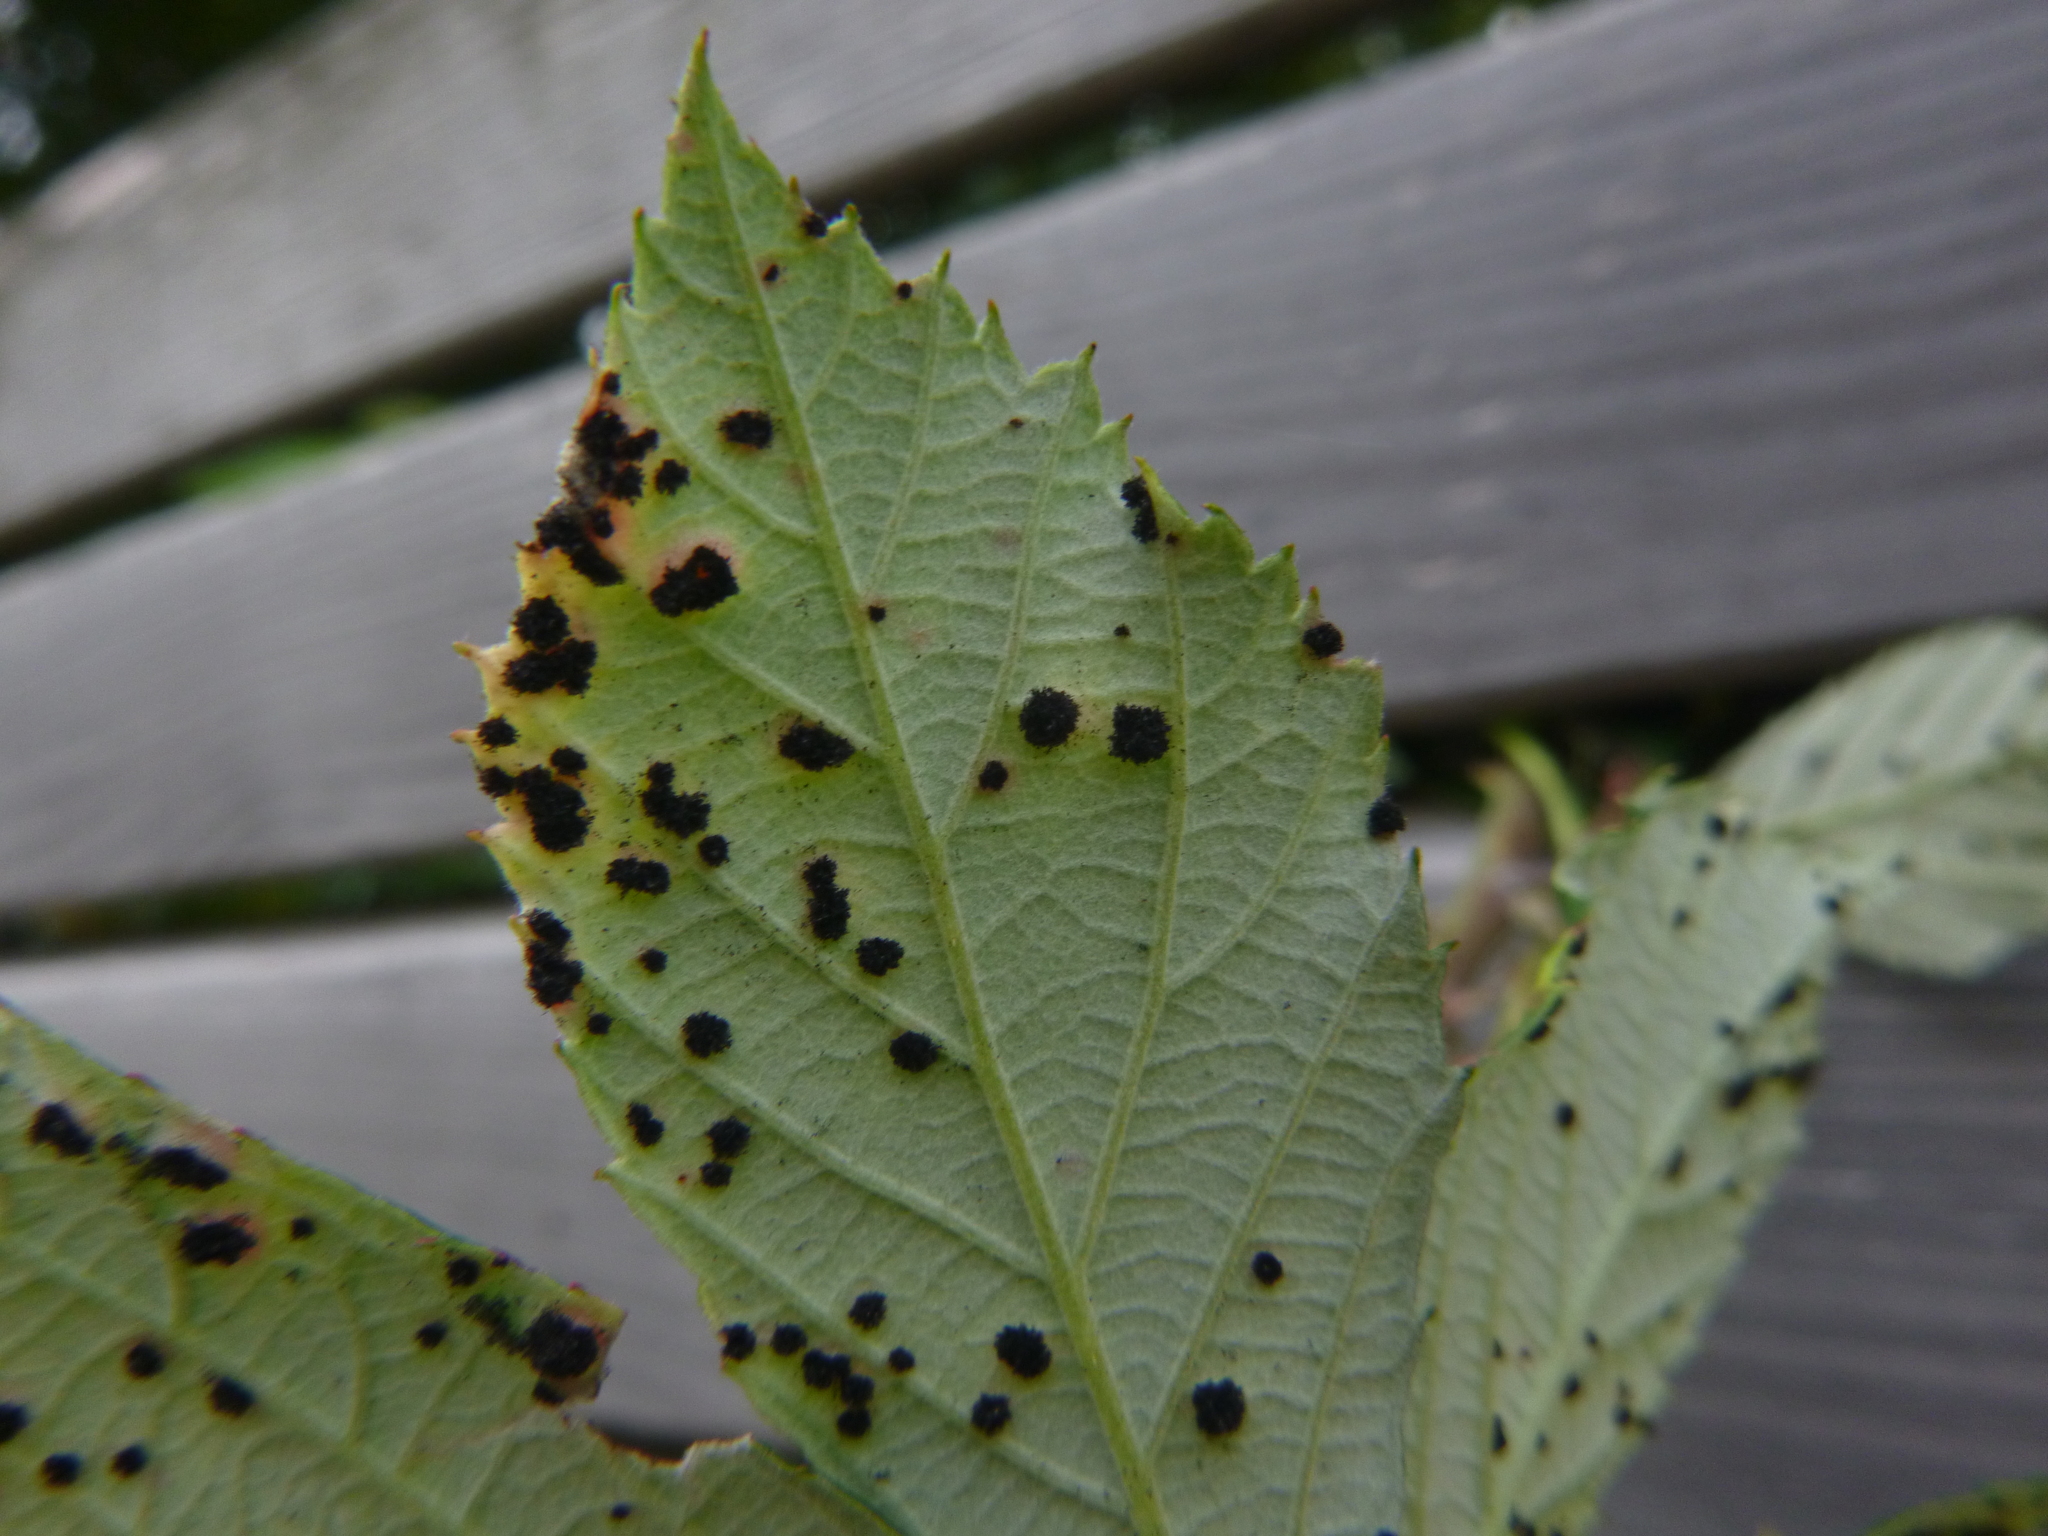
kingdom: Fungi
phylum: Basidiomycota
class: Pucciniomycetes
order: Pucciniales
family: Phragmidiaceae
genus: Phragmidium
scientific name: Phragmidium violaceum
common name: Violet bramble rust
